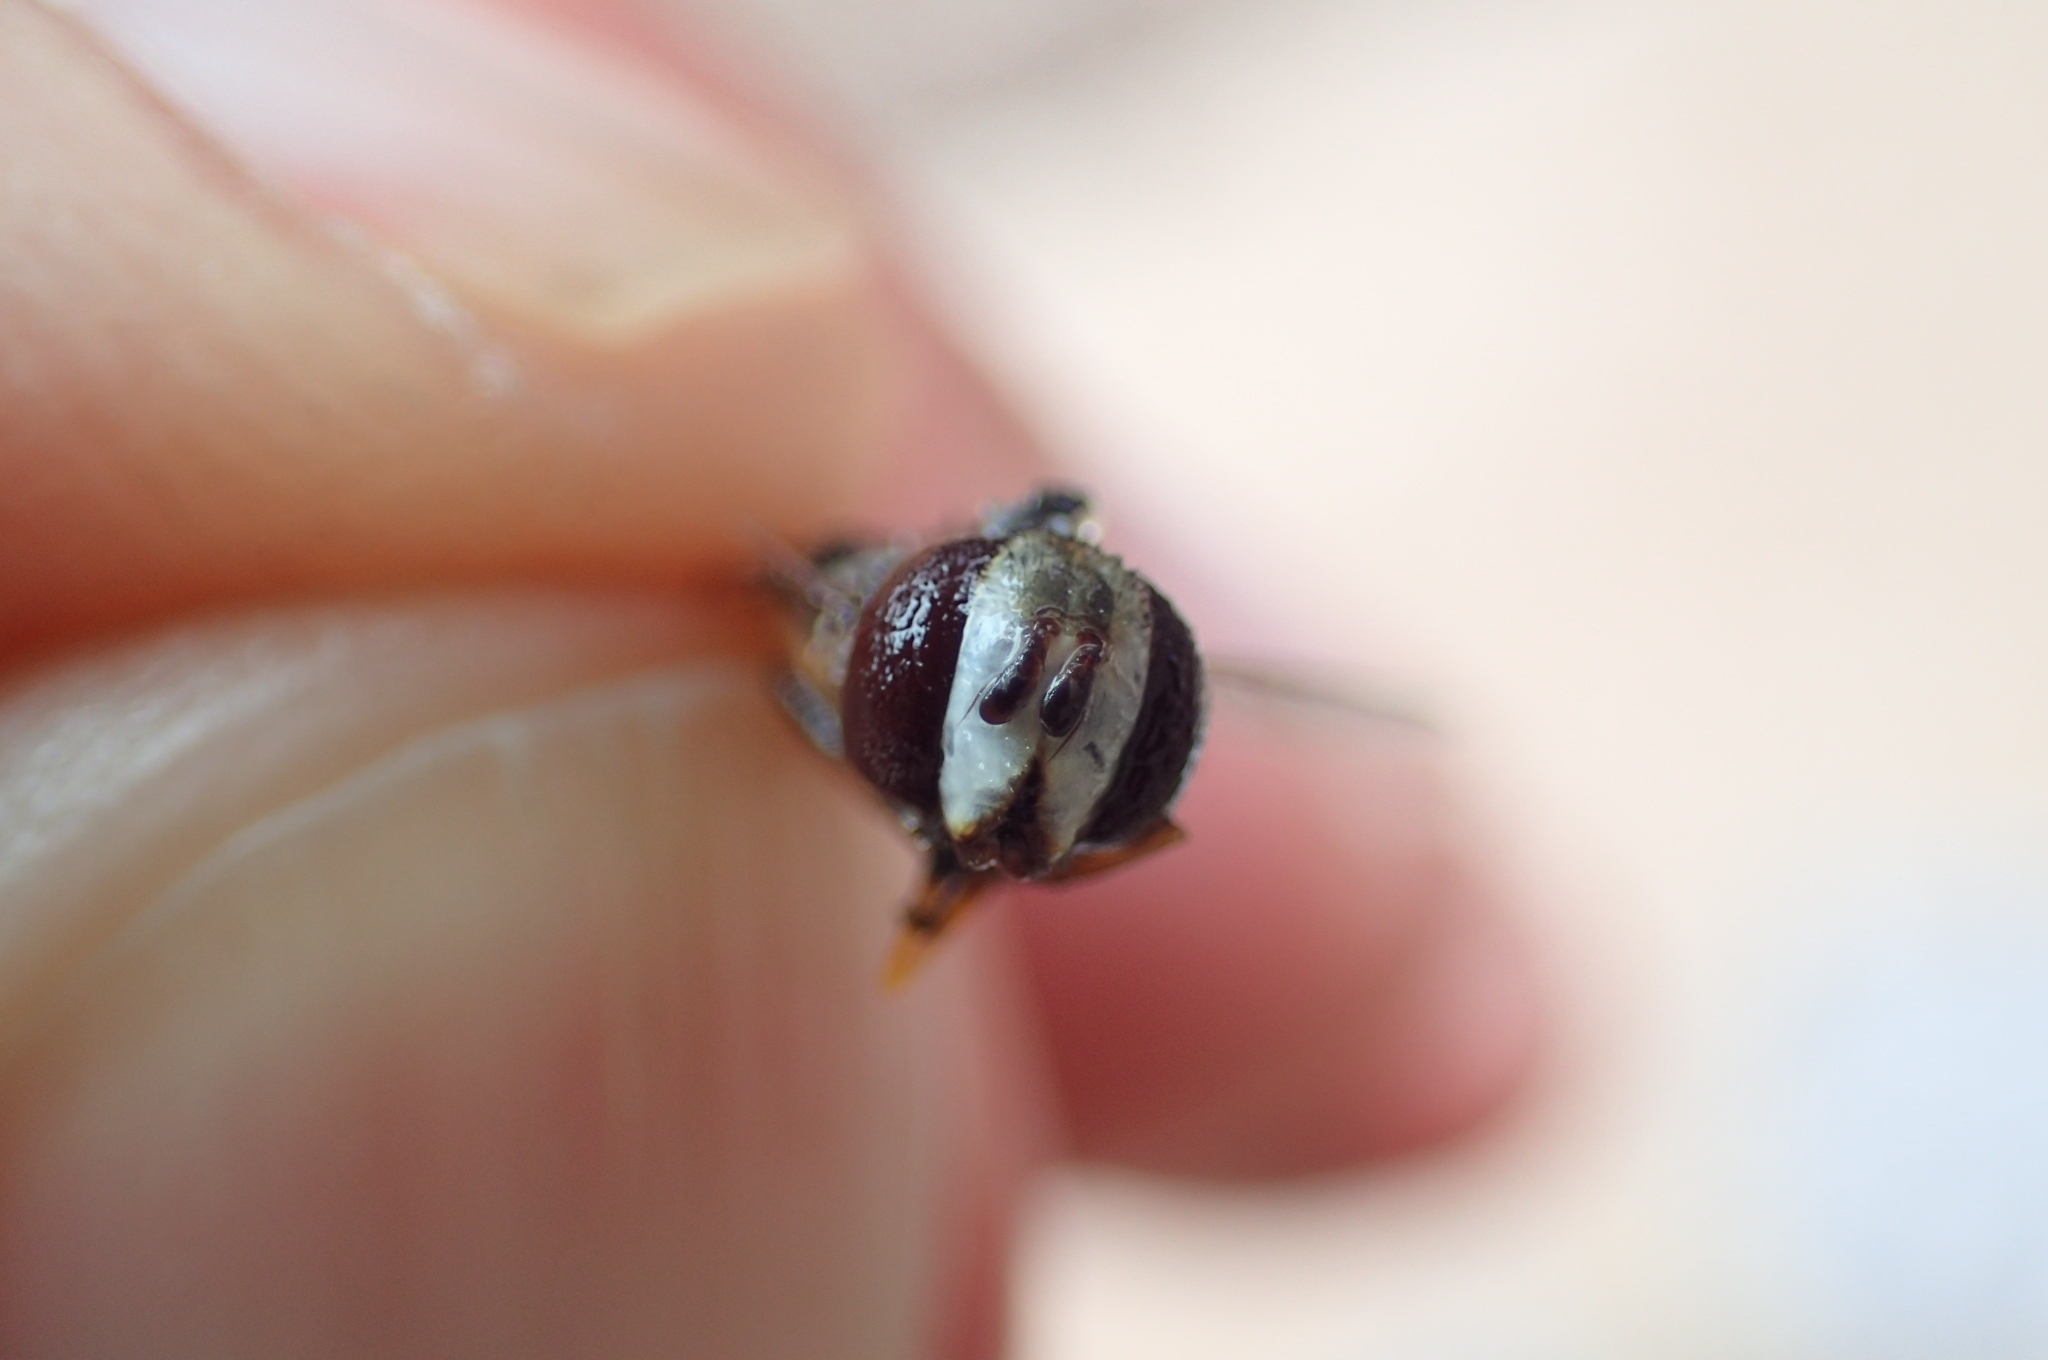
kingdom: Animalia
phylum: Arthropoda
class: Insecta
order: Diptera
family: Syrphidae
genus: Scaeva
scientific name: Scaeva pyrastri
